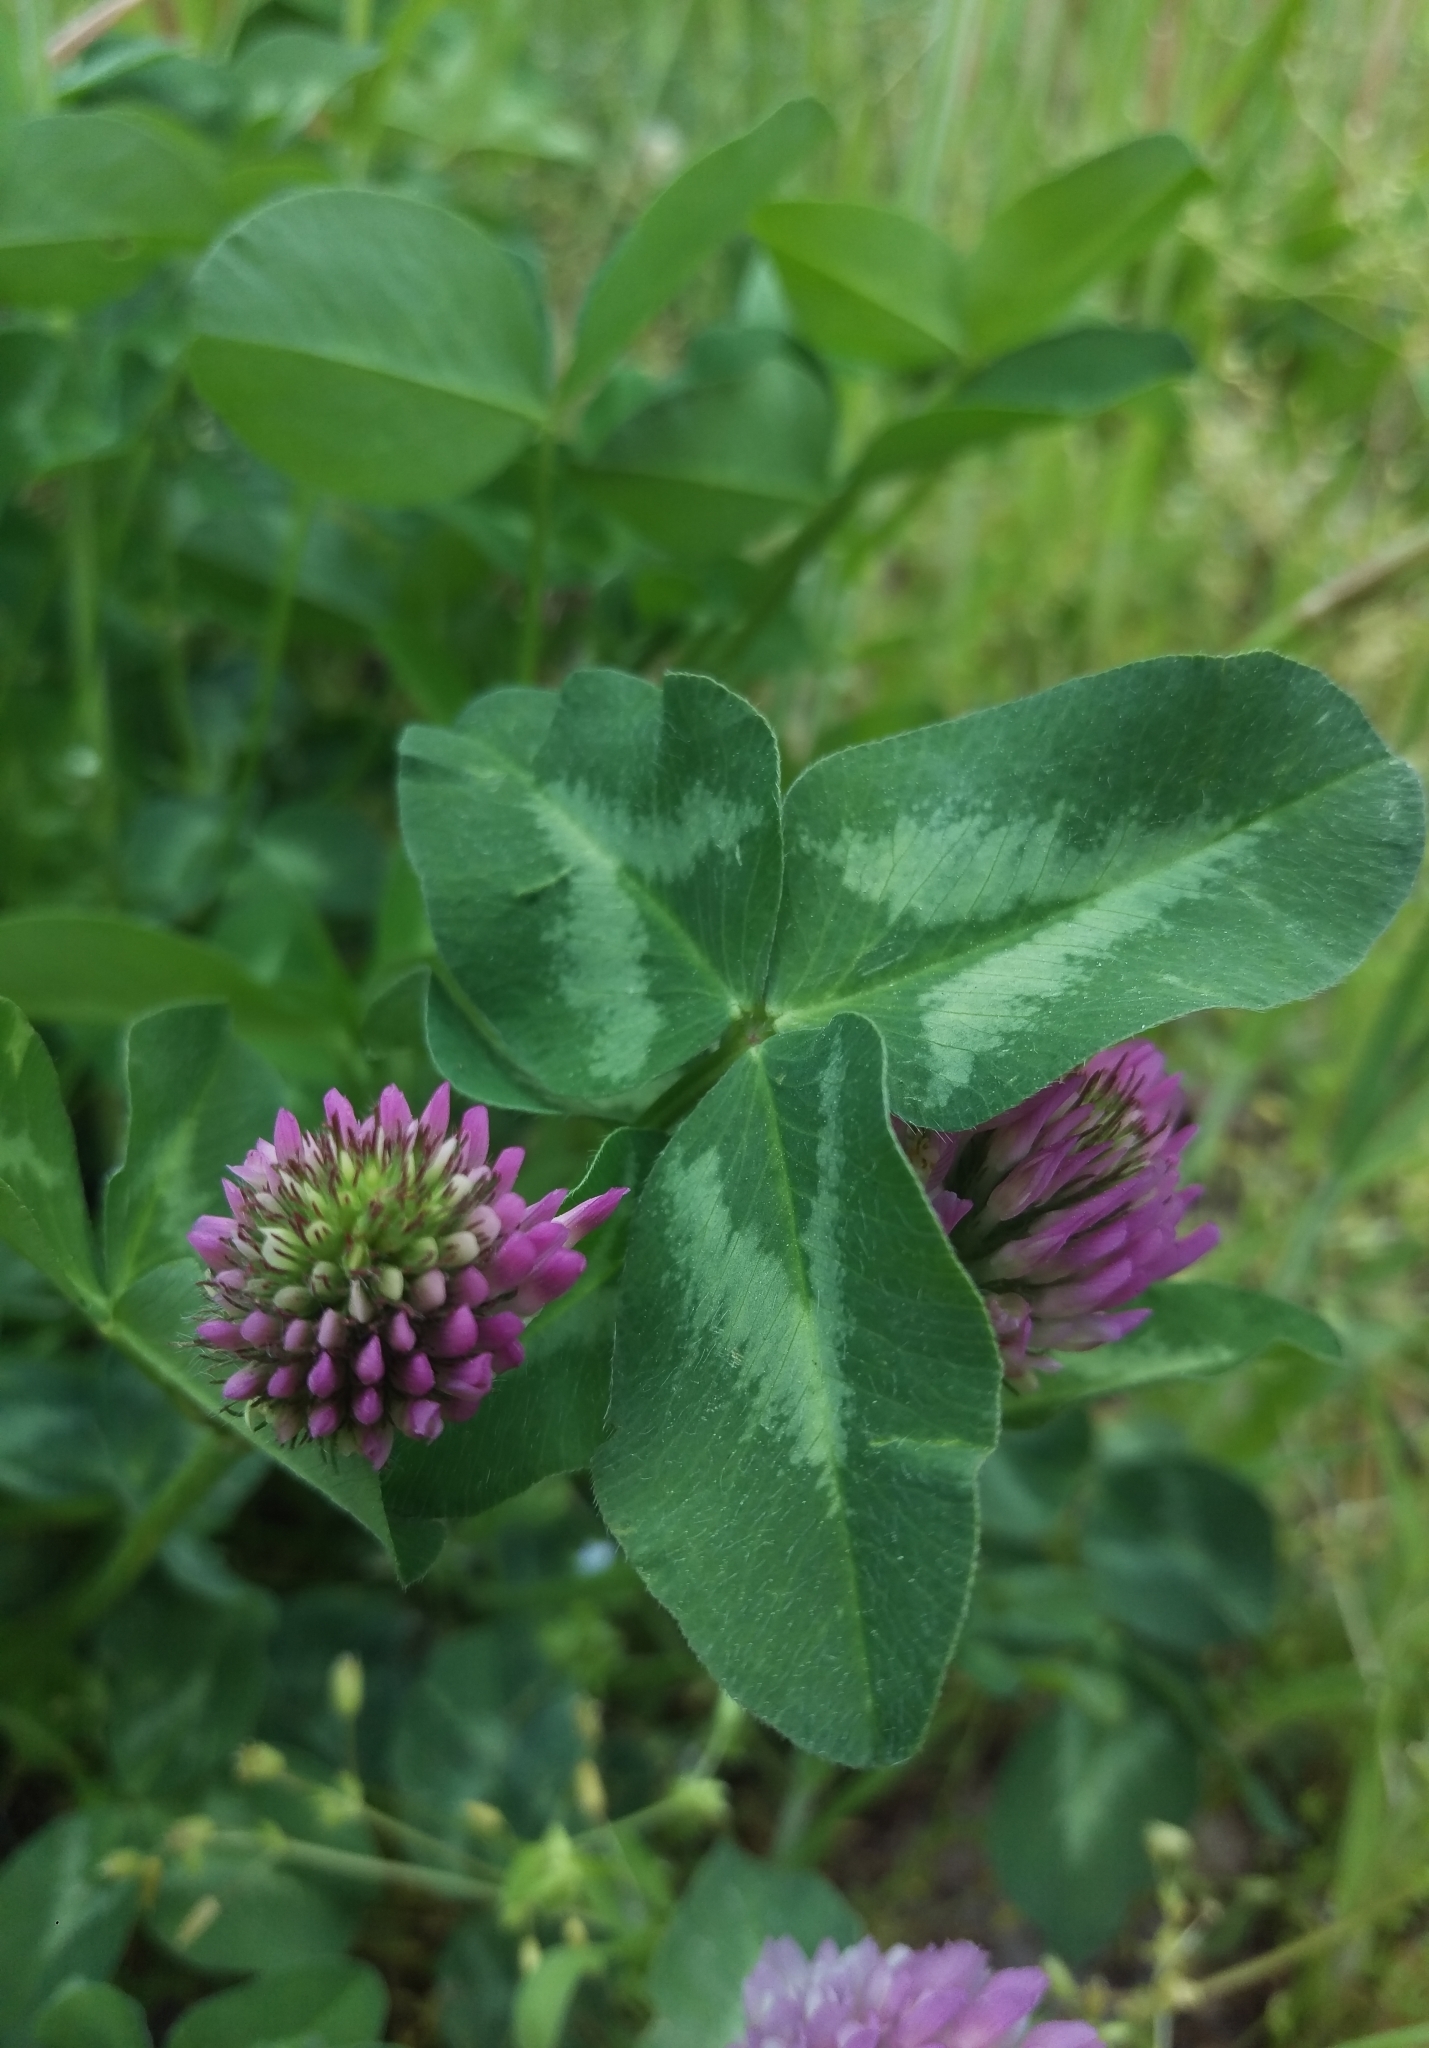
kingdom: Plantae
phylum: Tracheophyta
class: Magnoliopsida
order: Fabales
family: Fabaceae
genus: Trifolium
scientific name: Trifolium pratense
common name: Red clover
